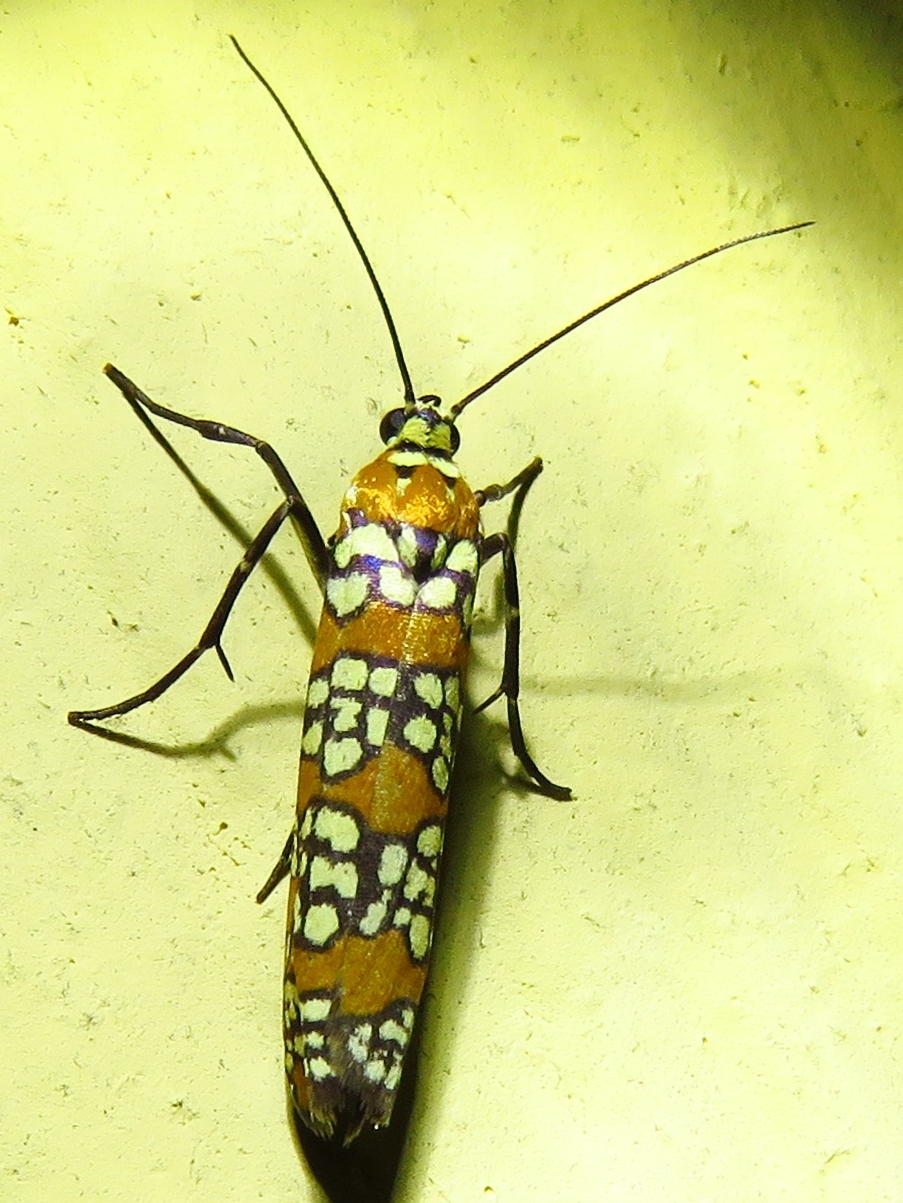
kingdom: Animalia
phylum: Arthropoda
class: Insecta
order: Lepidoptera
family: Attevidae
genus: Atteva
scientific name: Atteva punctella
